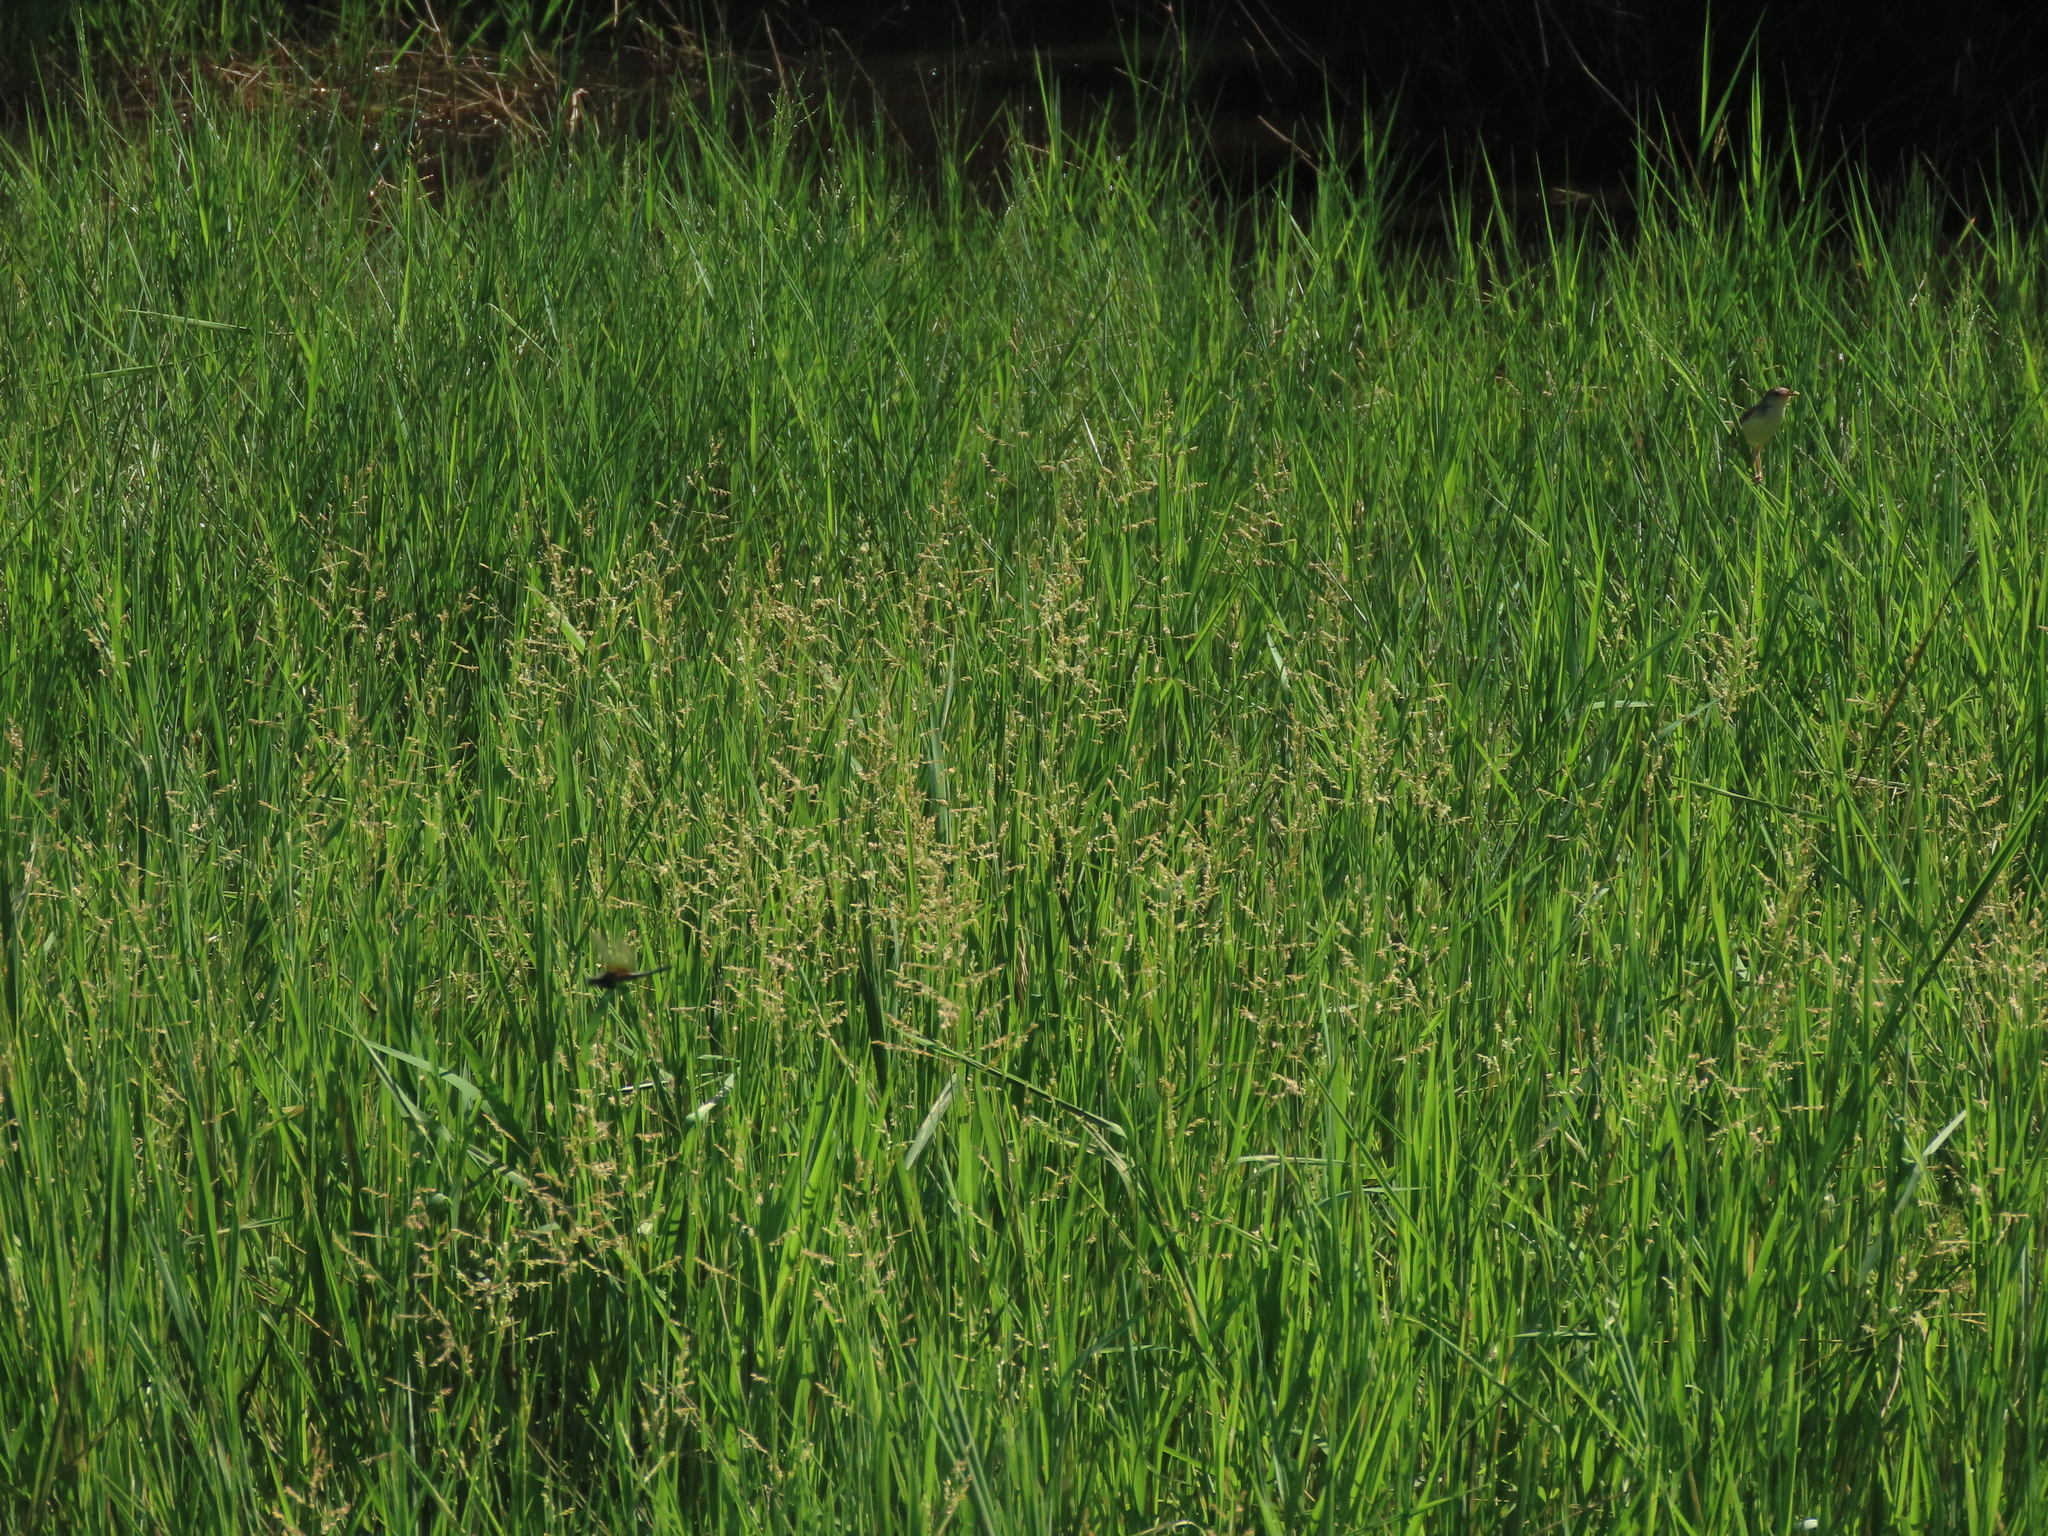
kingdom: Plantae
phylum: Tracheophyta
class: Liliopsida
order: Poales
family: Poaceae
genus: Leersia
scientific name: Leersia hexandra
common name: Southern cut grass
